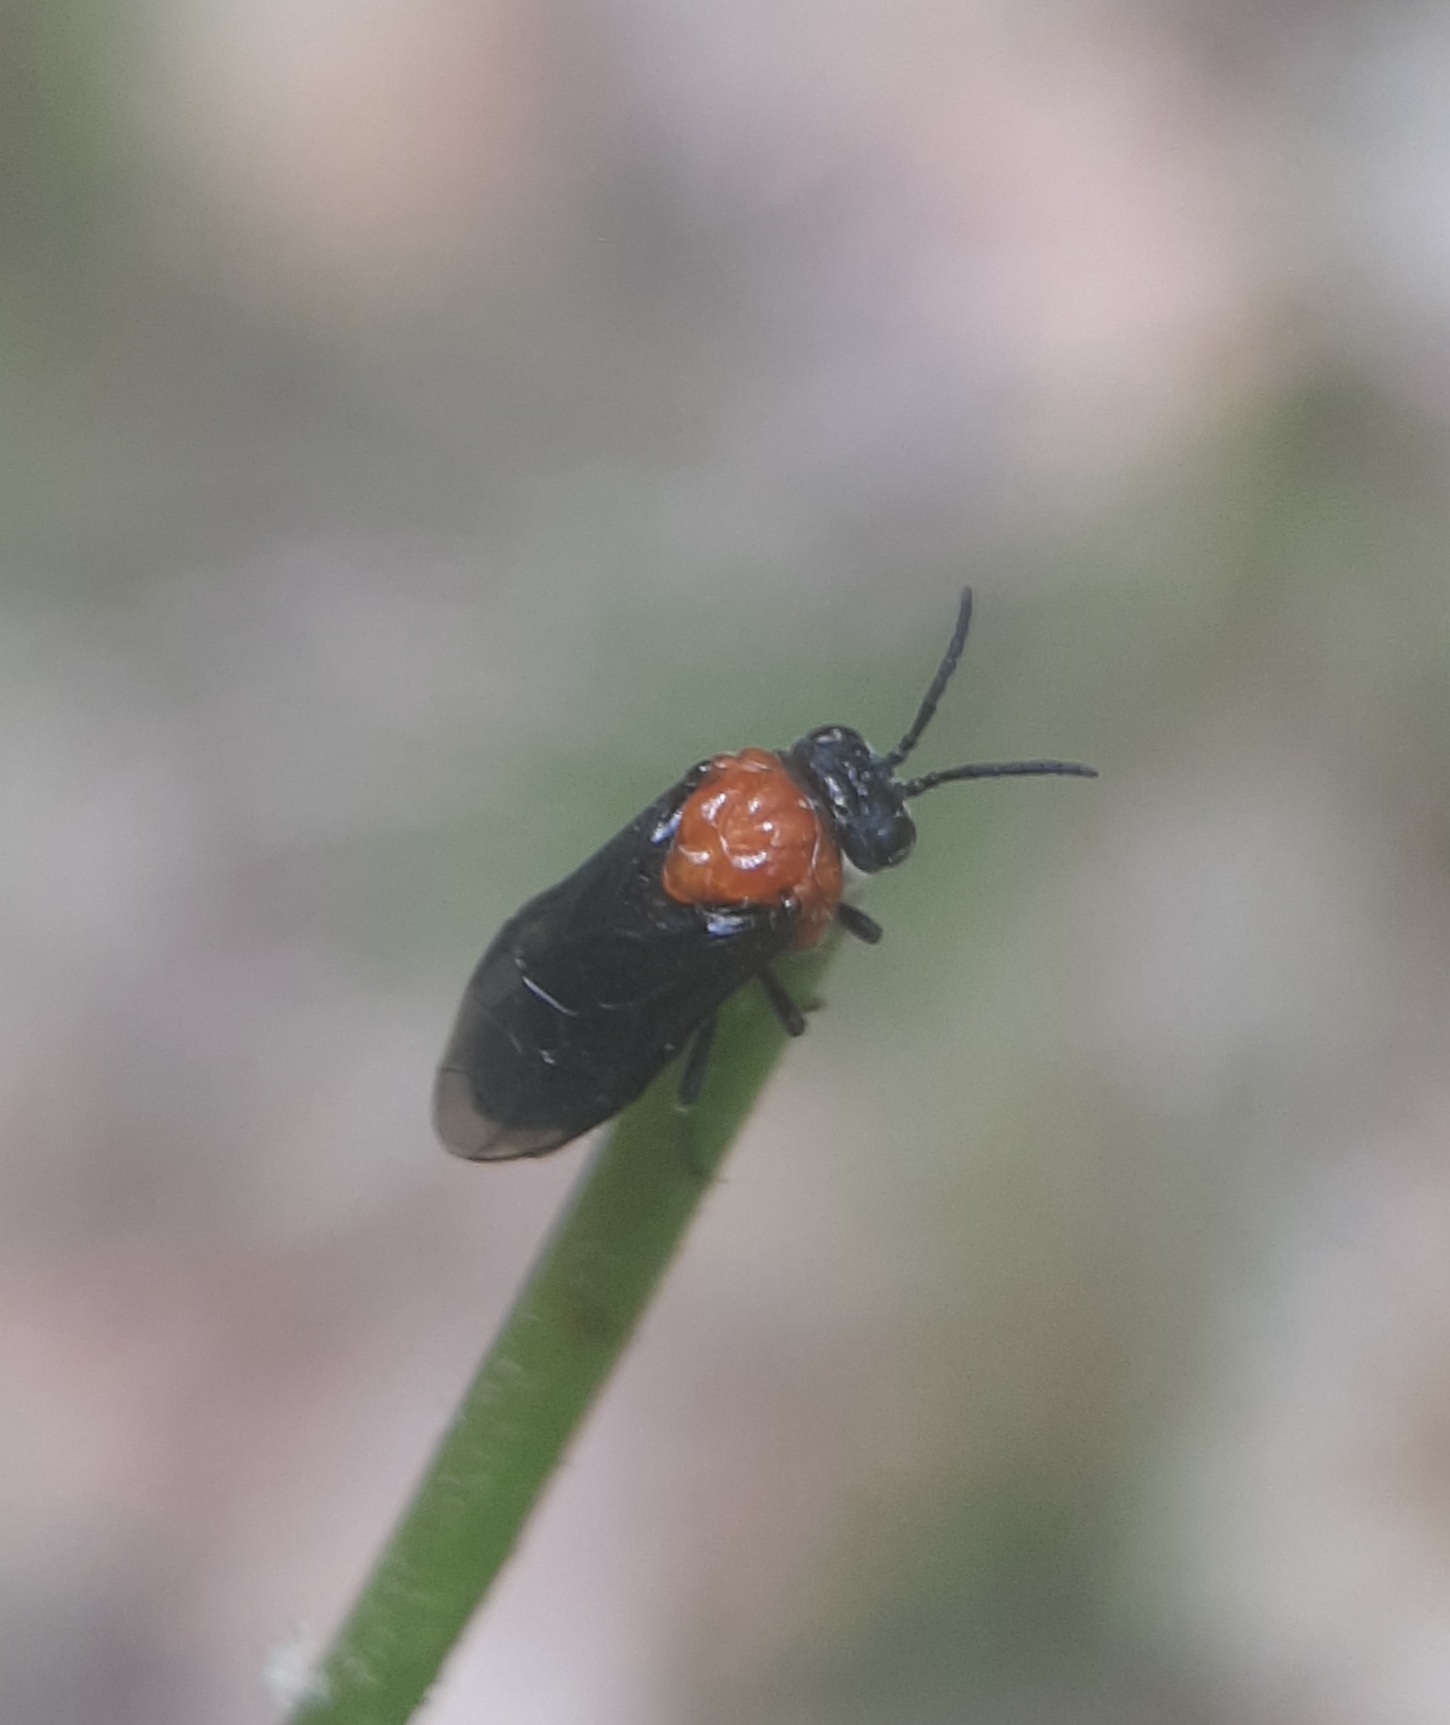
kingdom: Animalia
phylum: Arthropoda
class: Insecta
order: Hymenoptera
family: Tenthredinidae
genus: Tethida
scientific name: Tethida barda
